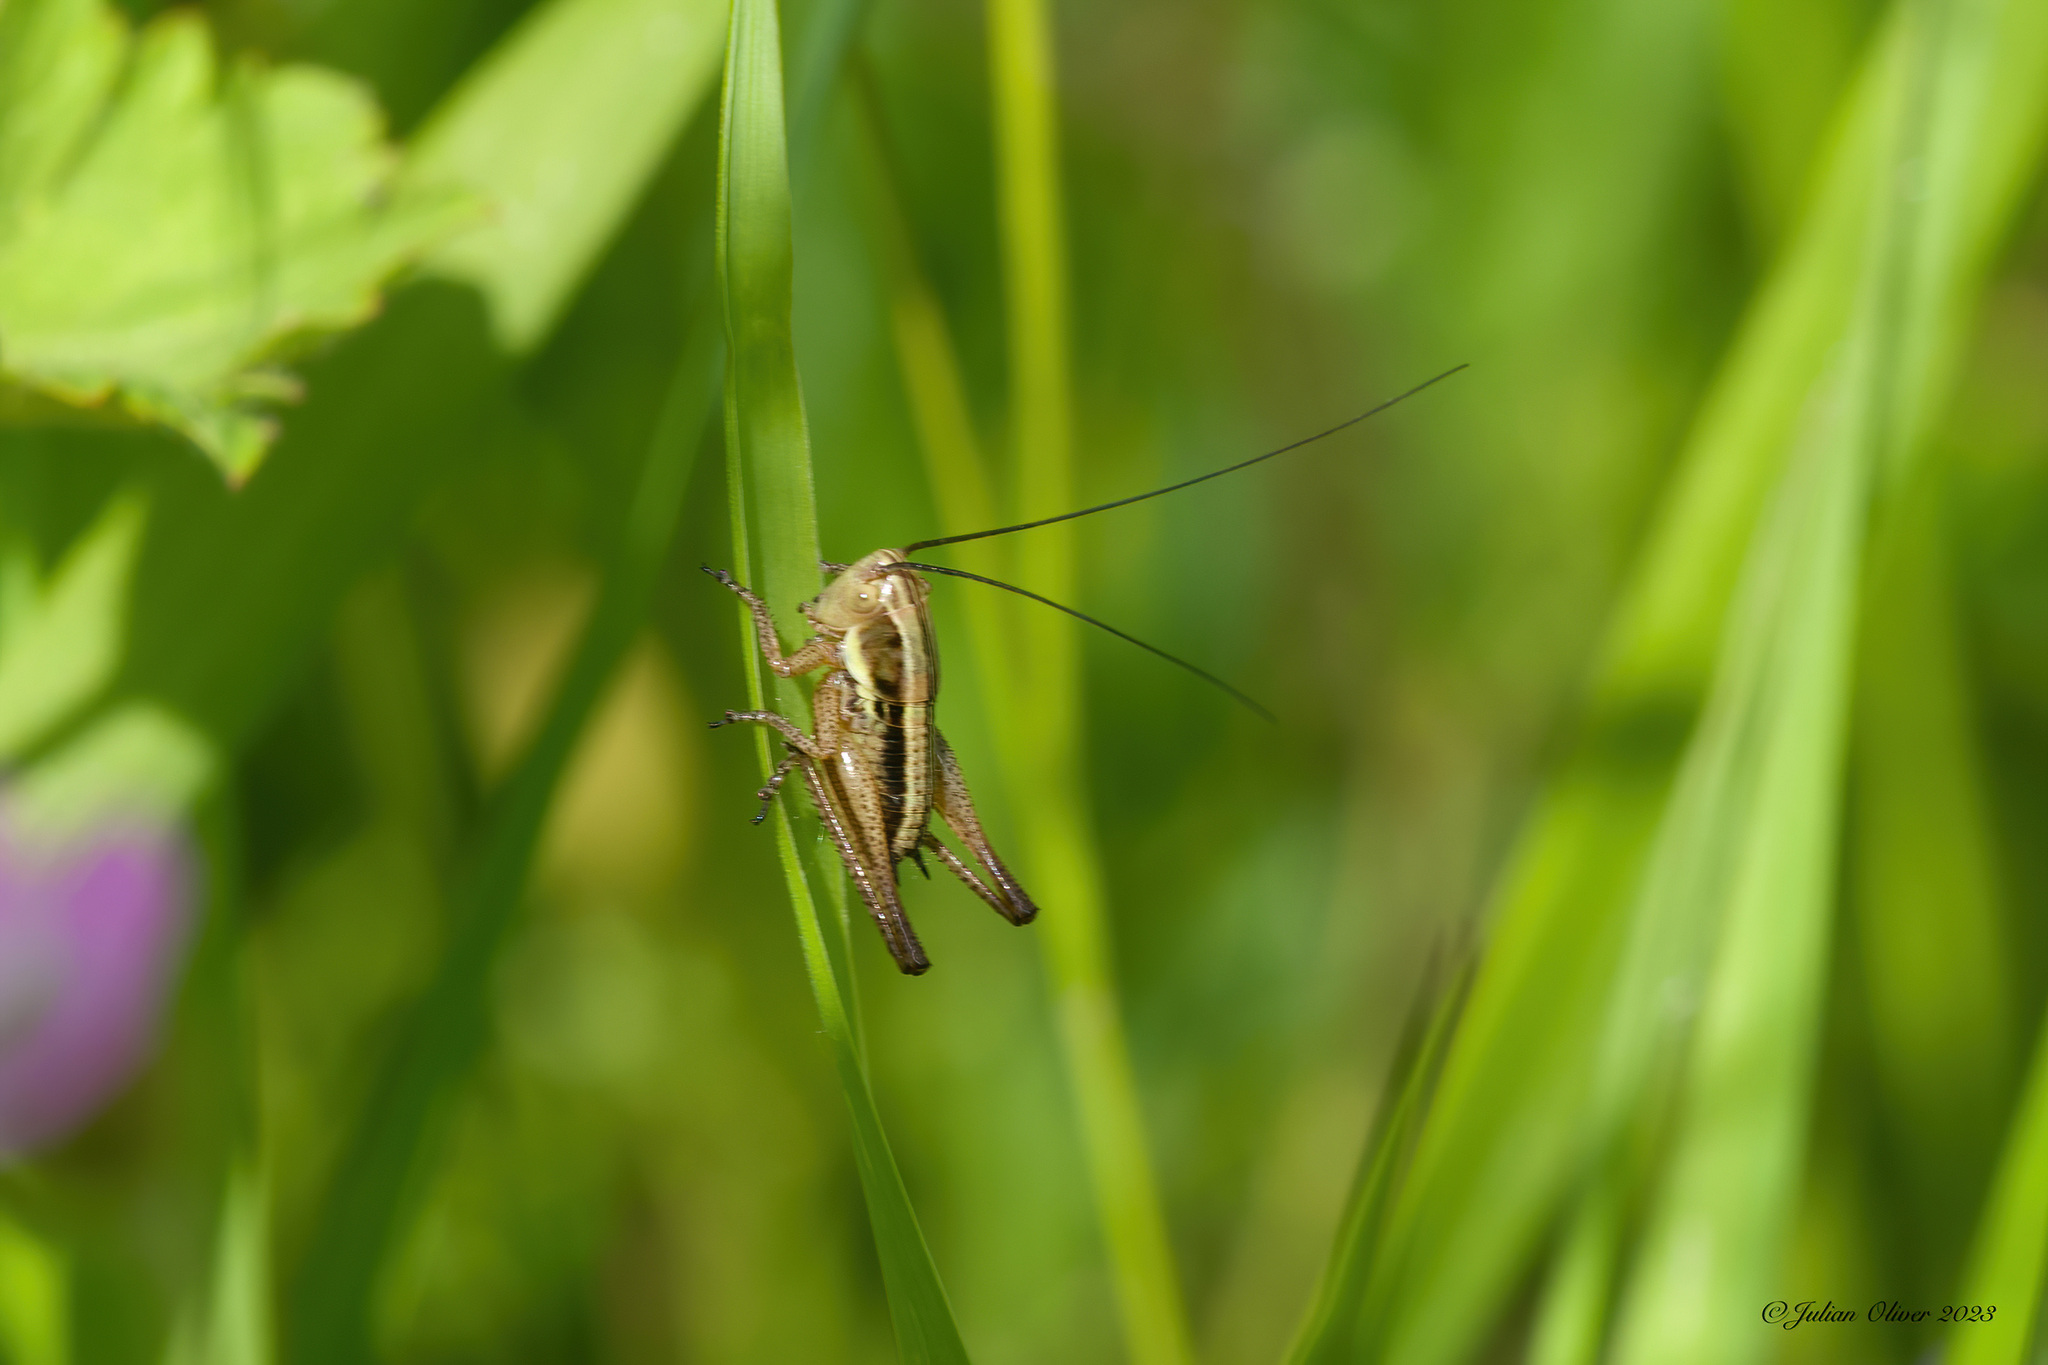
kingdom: Animalia
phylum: Arthropoda
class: Insecta
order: Orthoptera
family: Tettigoniidae
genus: Roeseliana
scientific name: Roeseliana roeselii
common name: Roesel's bush cricket
